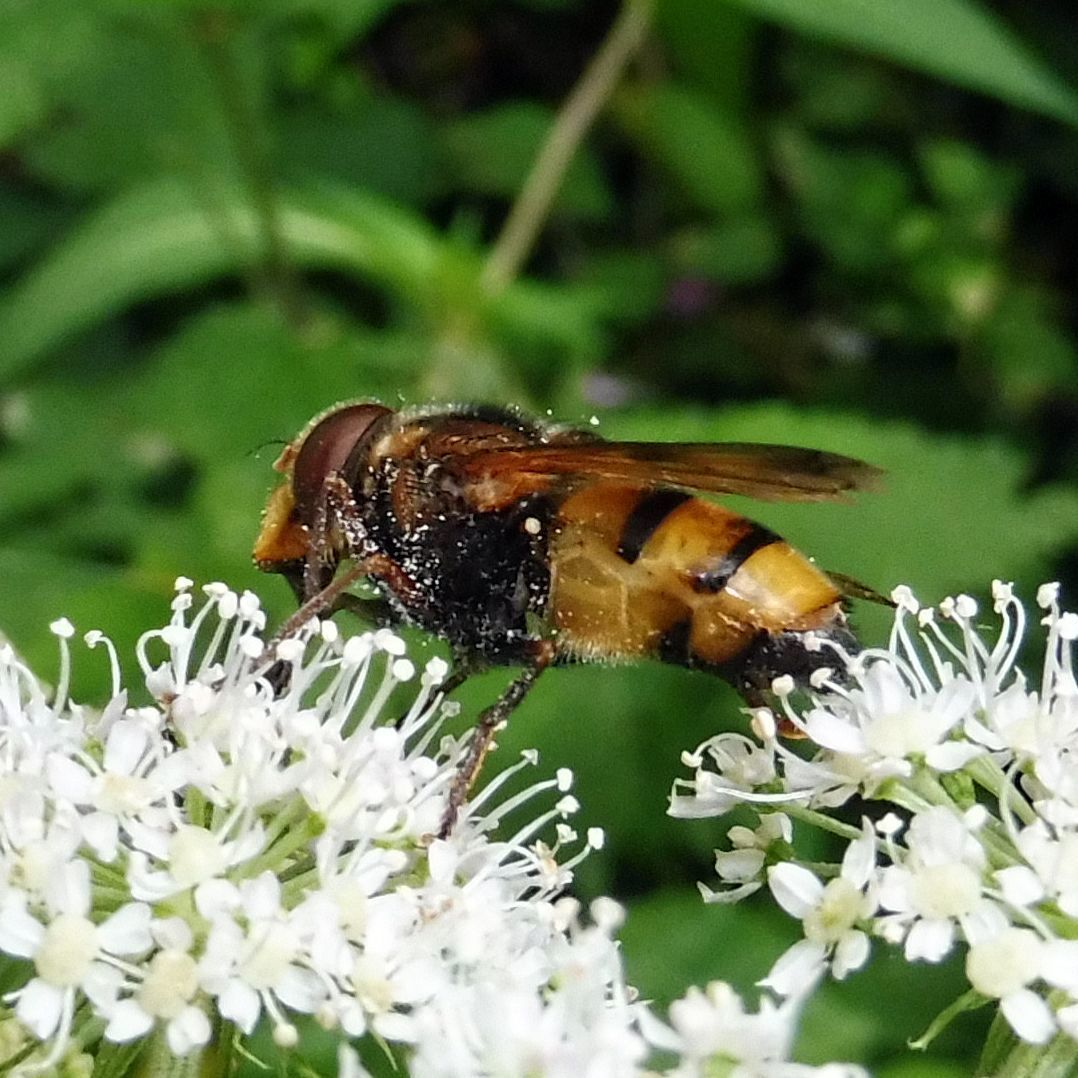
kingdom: Animalia
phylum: Arthropoda
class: Insecta
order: Diptera
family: Syrphidae
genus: Volucella
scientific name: Volucella inanis
